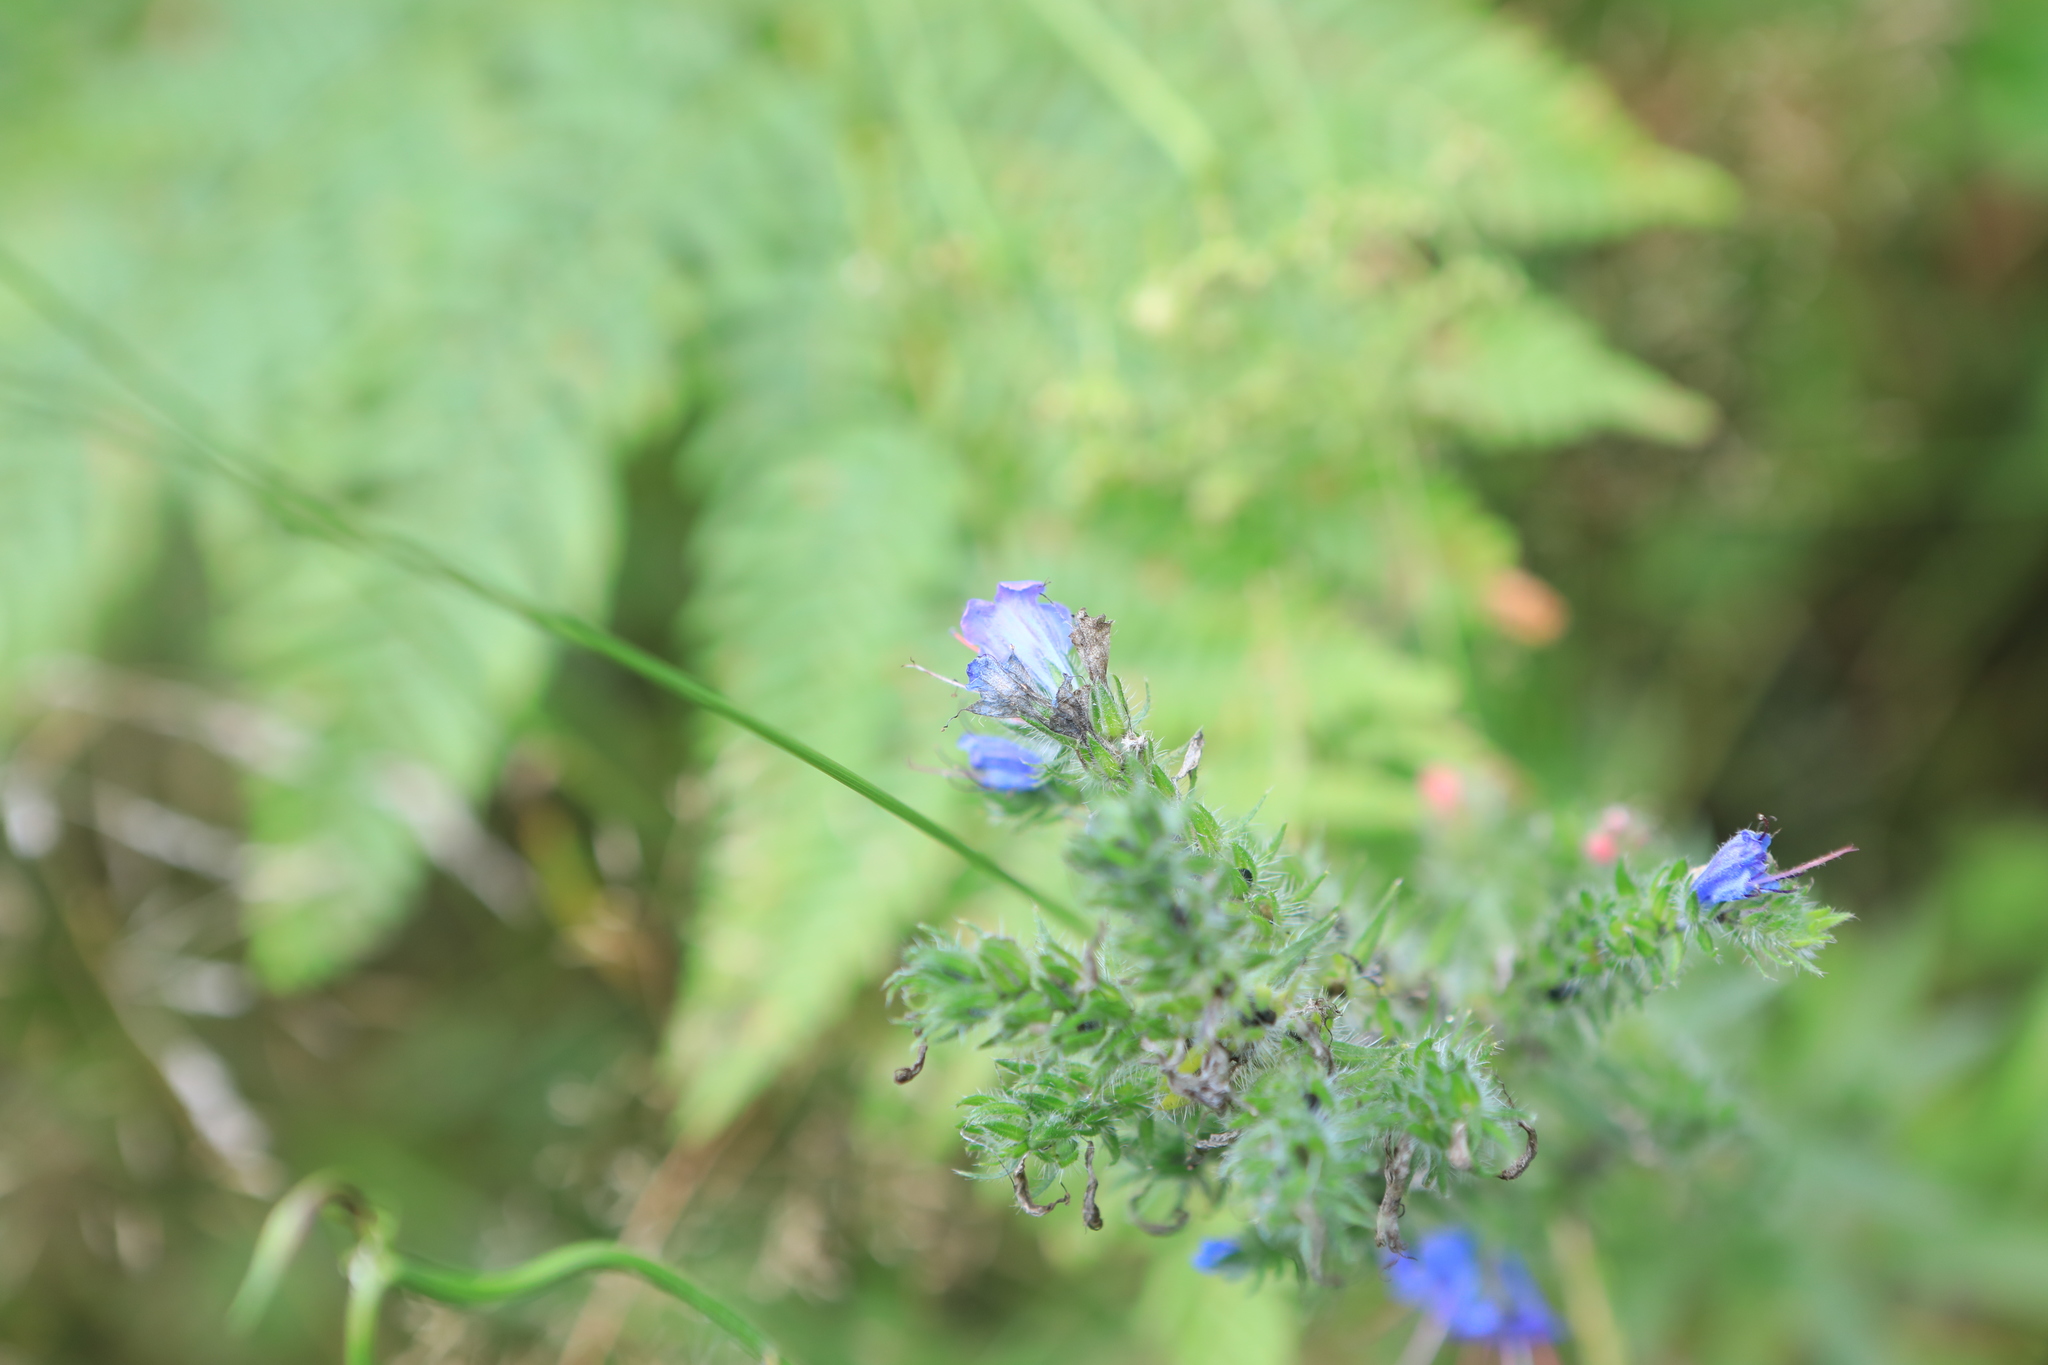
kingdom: Plantae
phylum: Tracheophyta
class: Magnoliopsida
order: Boraginales
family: Boraginaceae
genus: Echium
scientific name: Echium vulgare
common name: Common viper's bugloss
